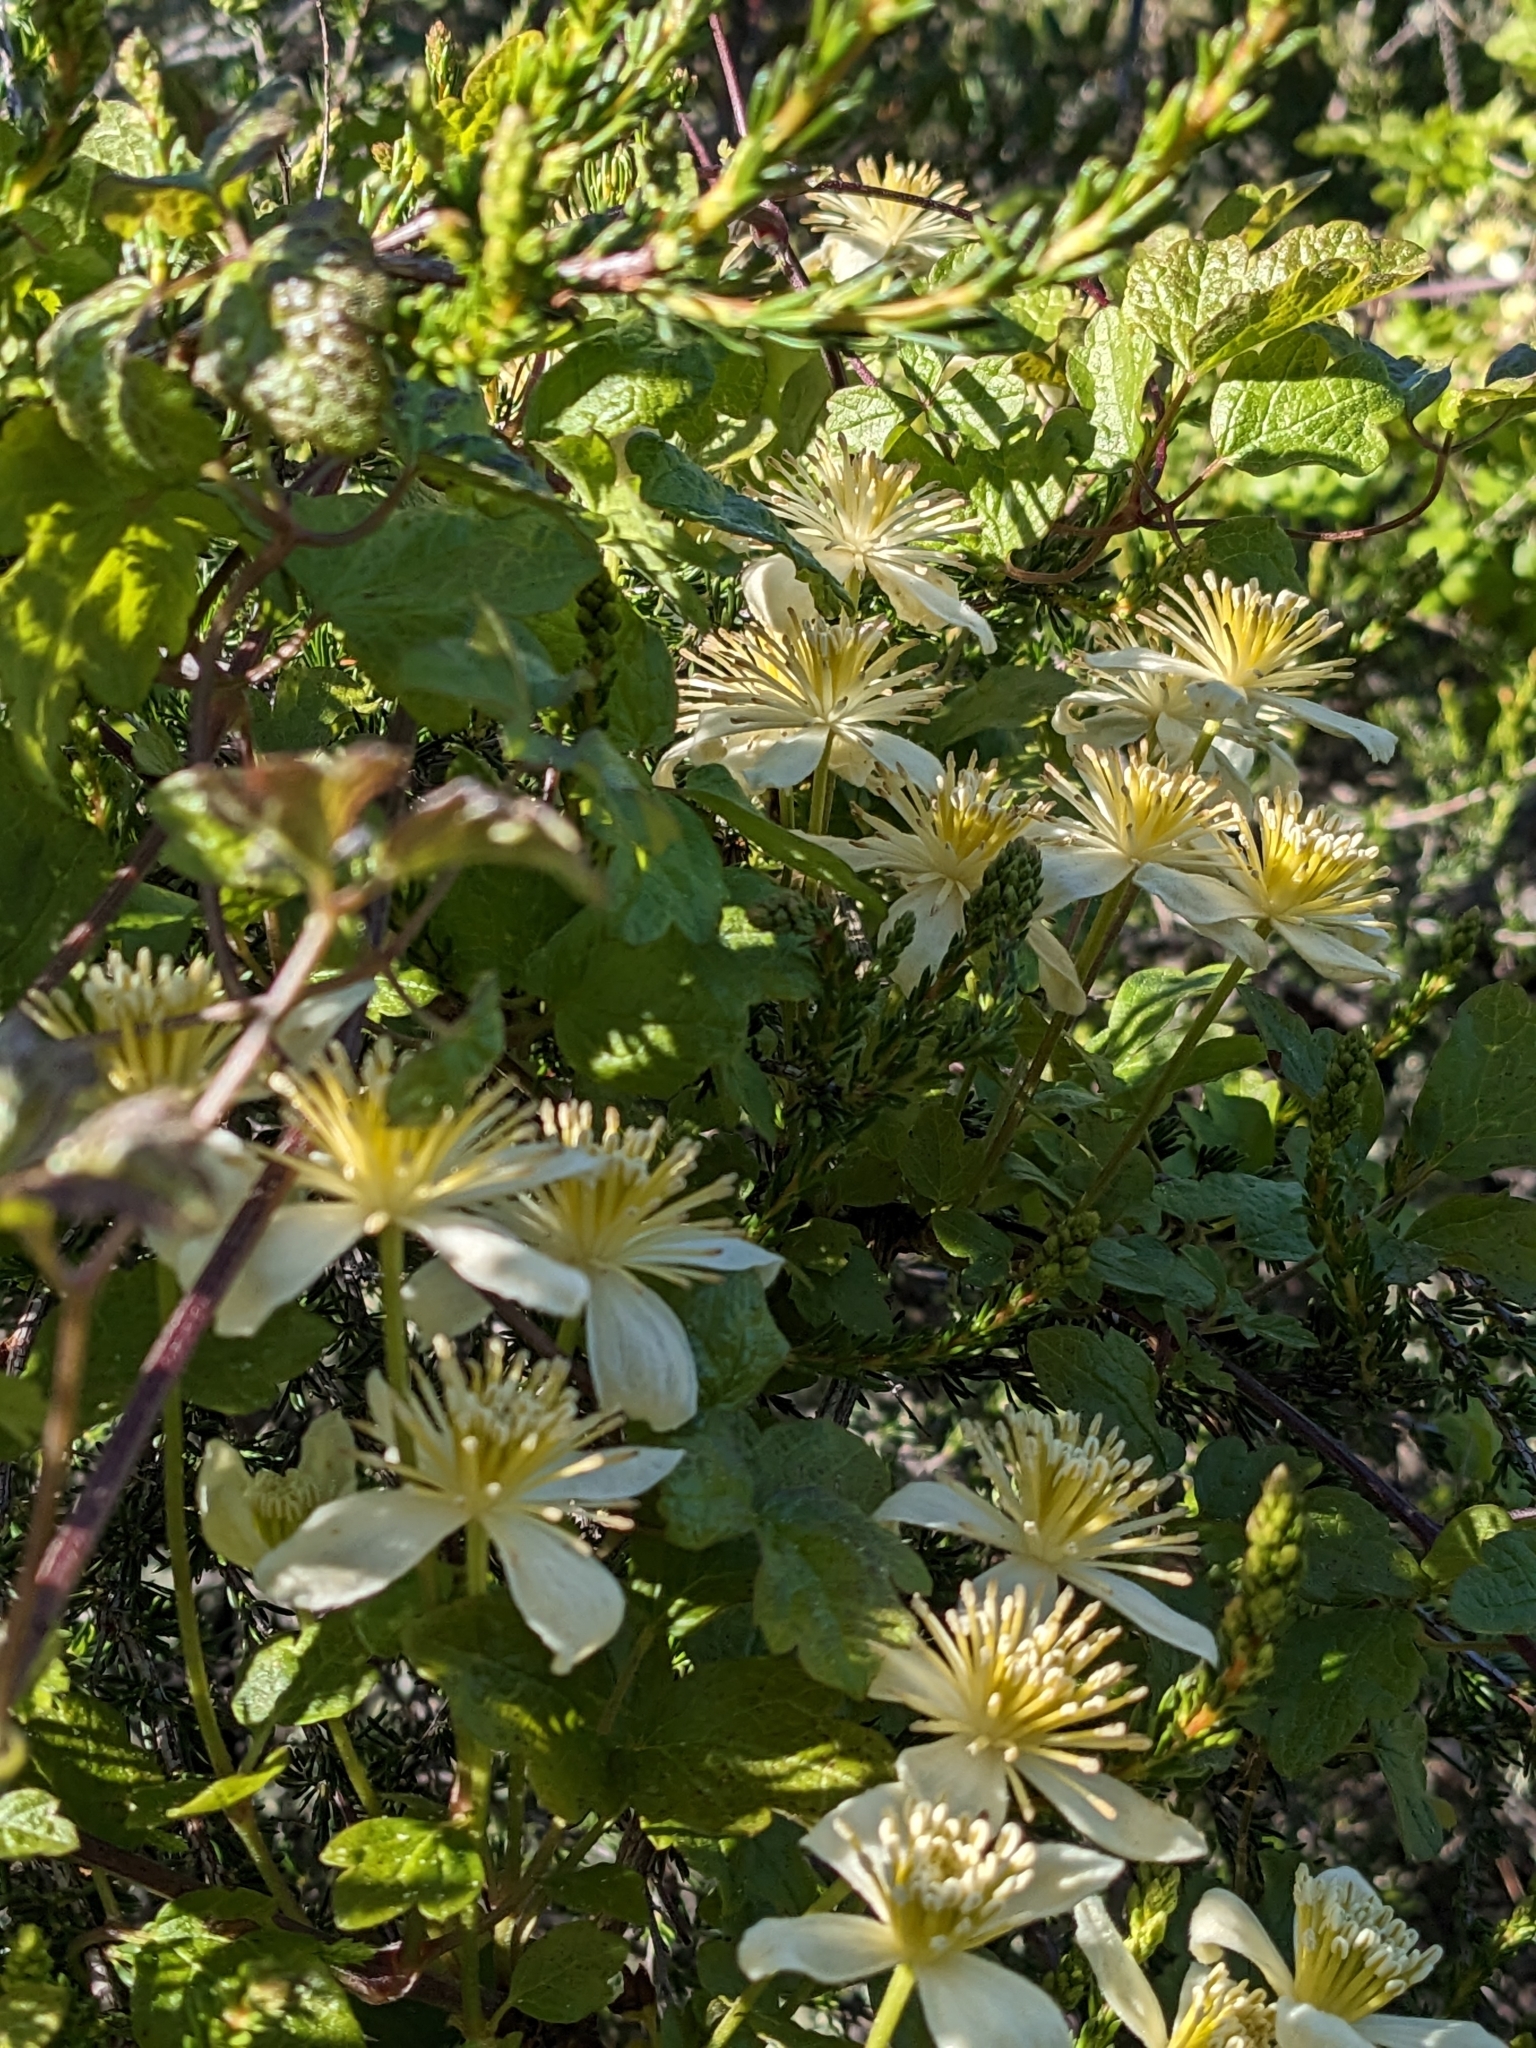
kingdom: Plantae
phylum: Tracheophyta
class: Magnoliopsida
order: Ranunculales
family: Ranunculaceae
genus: Clematis
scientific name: Clematis lasiantha
